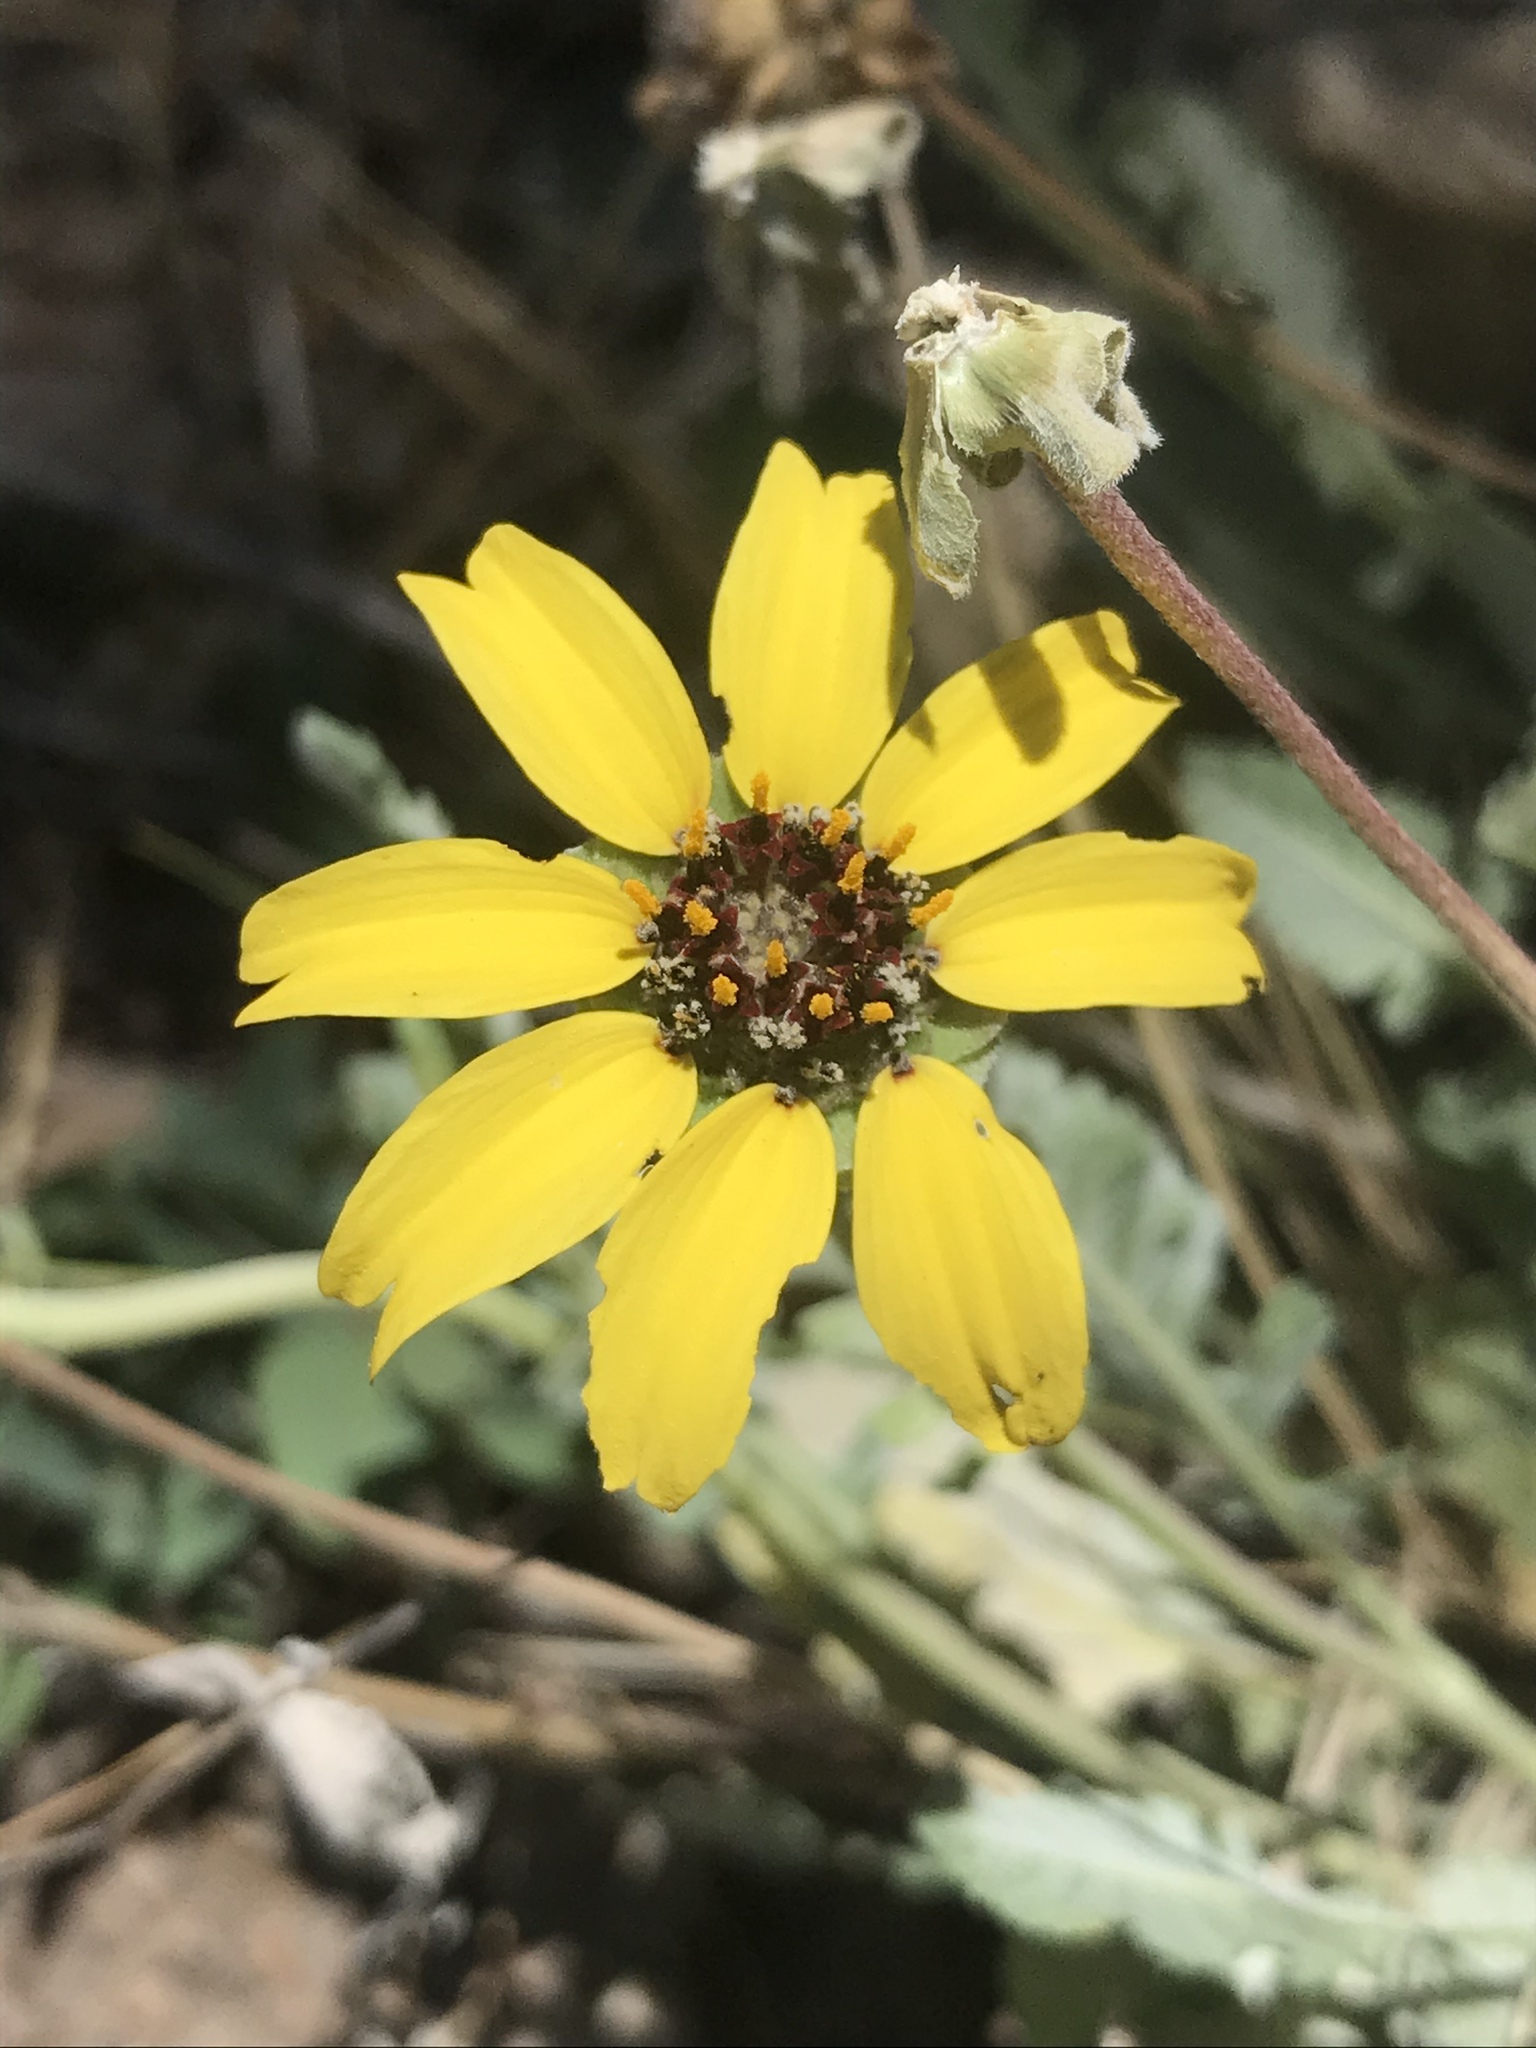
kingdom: Plantae
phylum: Tracheophyta
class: Magnoliopsida
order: Asterales
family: Asteraceae
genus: Berlandiera
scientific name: Berlandiera lyrata
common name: Chocolate-flower
